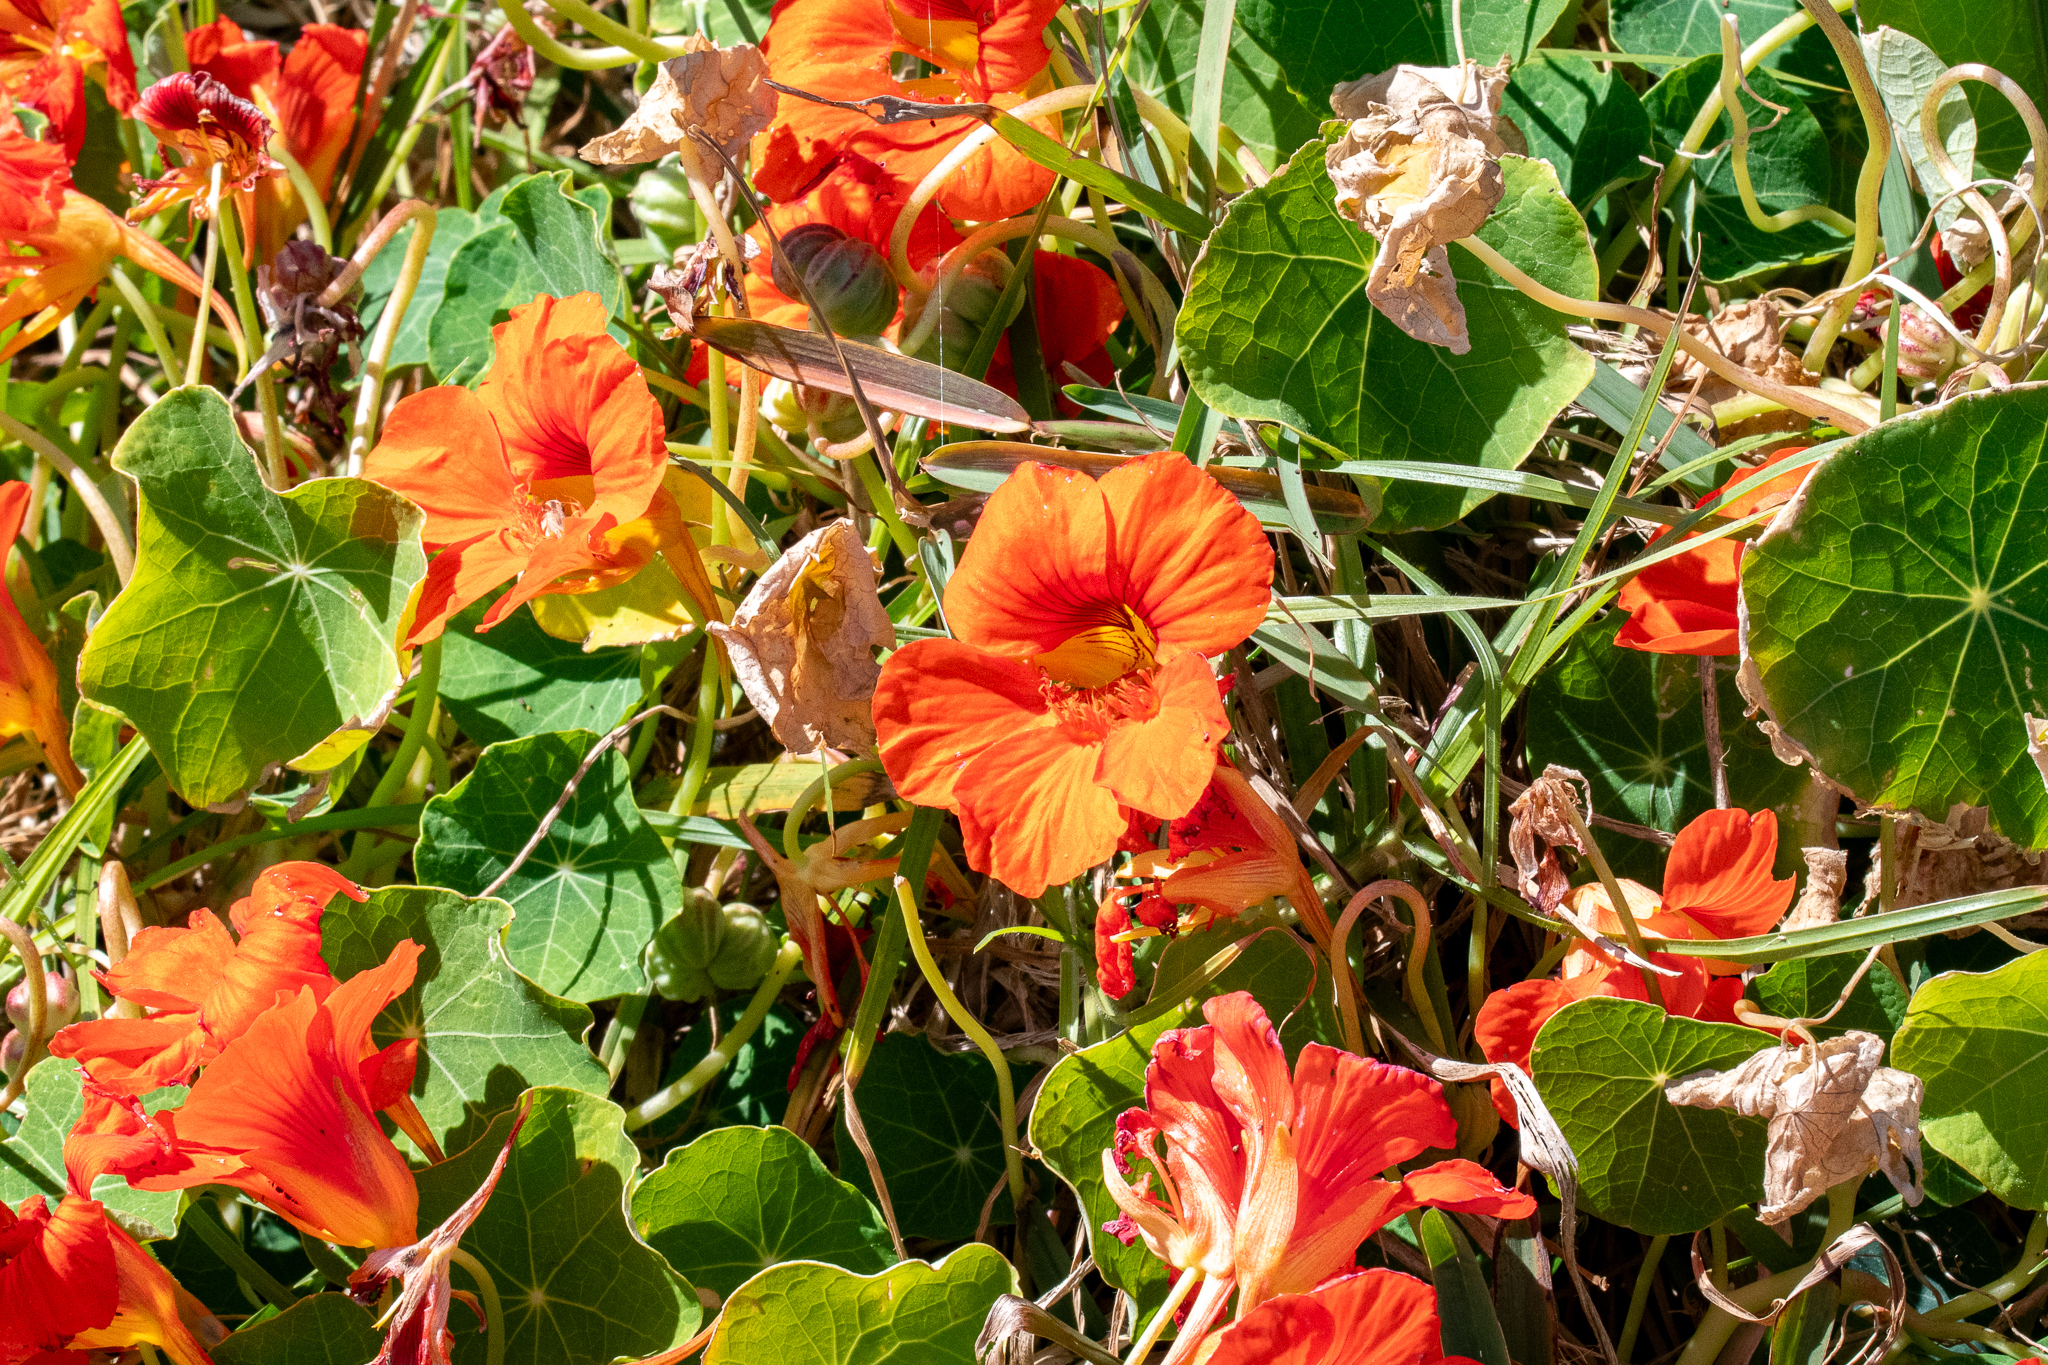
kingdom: Plantae
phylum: Tracheophyta
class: Magnoliopsida
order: Brassicales
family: Tropaeolaceae
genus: Tropaeolum
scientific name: Tropaeolum majus
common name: Nasturtium
